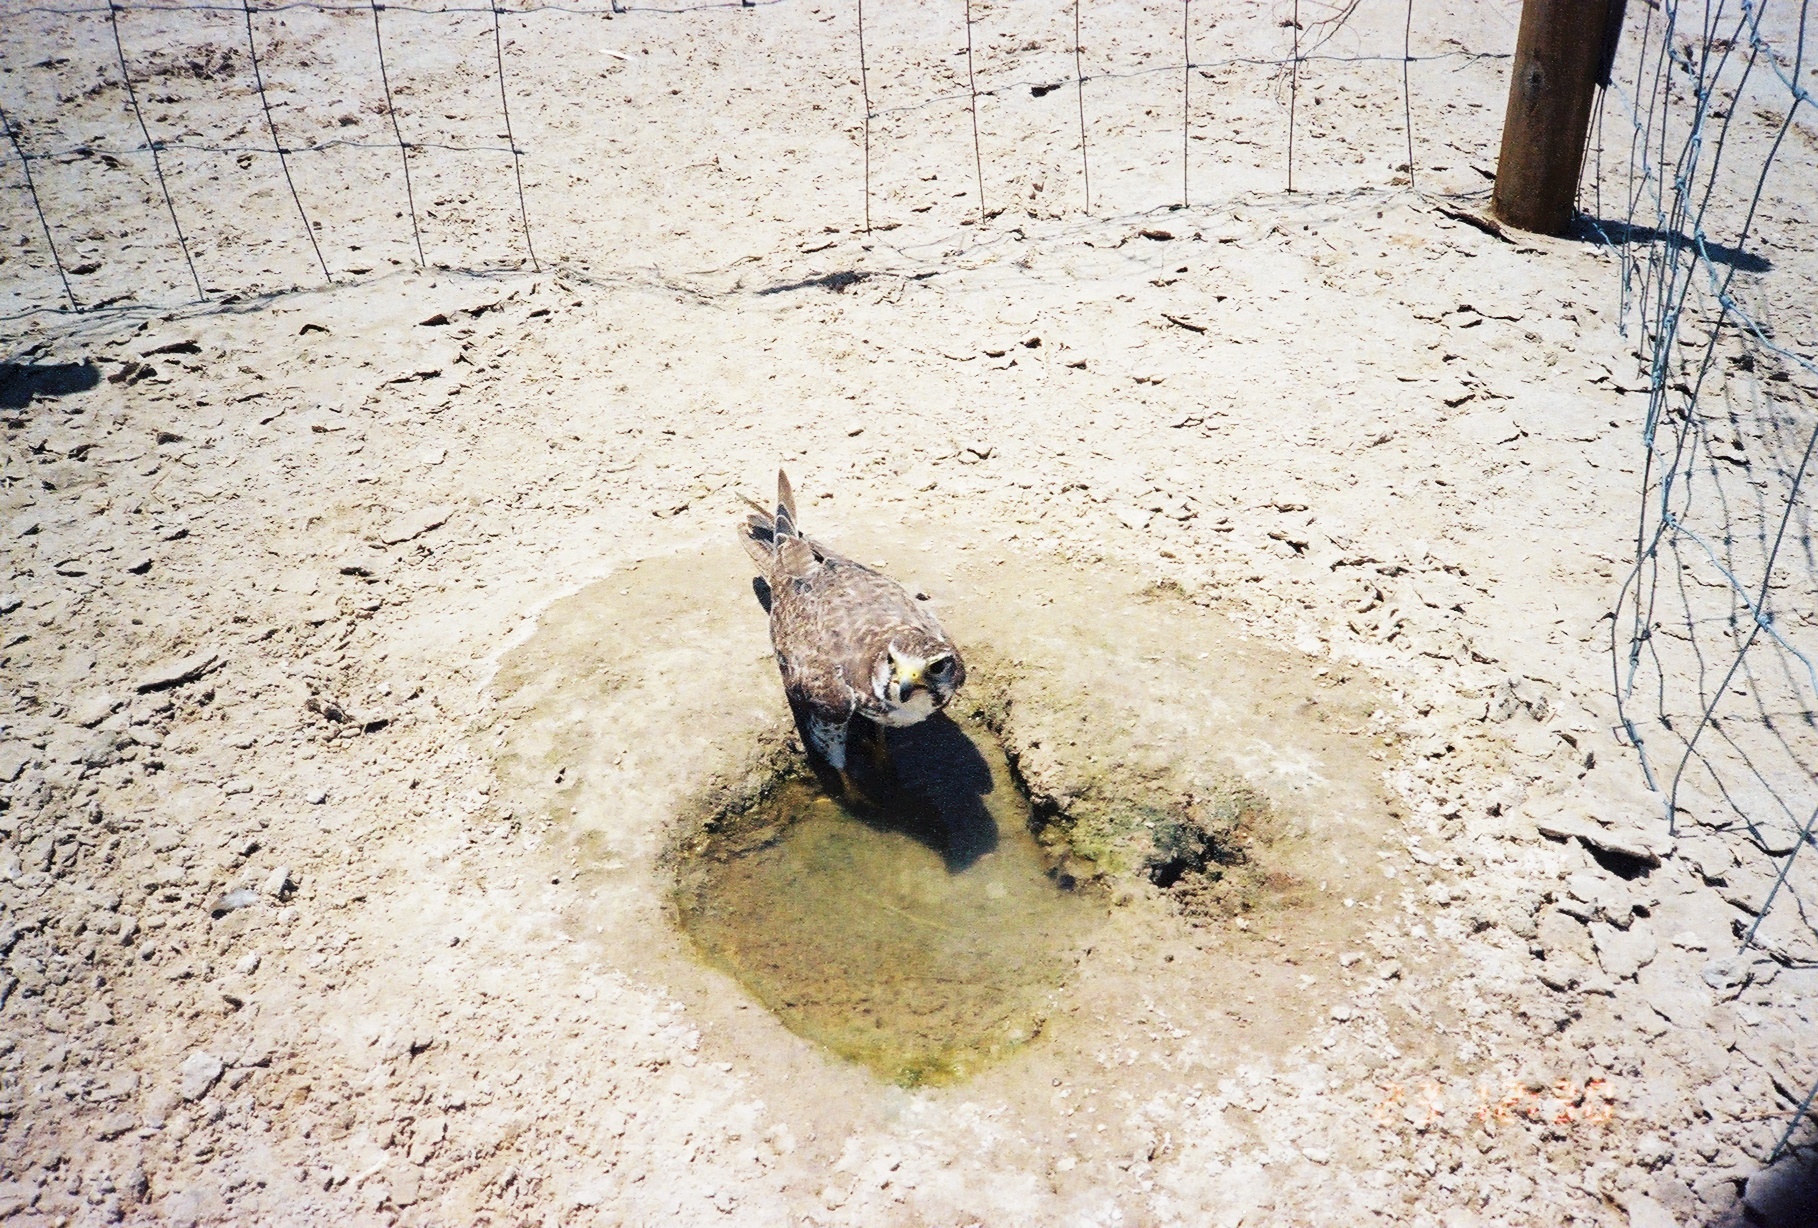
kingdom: Animalia
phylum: Chordata
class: Aves
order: Falconiformes
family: Falconidae
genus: Falco
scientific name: Falco mexicanus
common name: Prairie falcon
